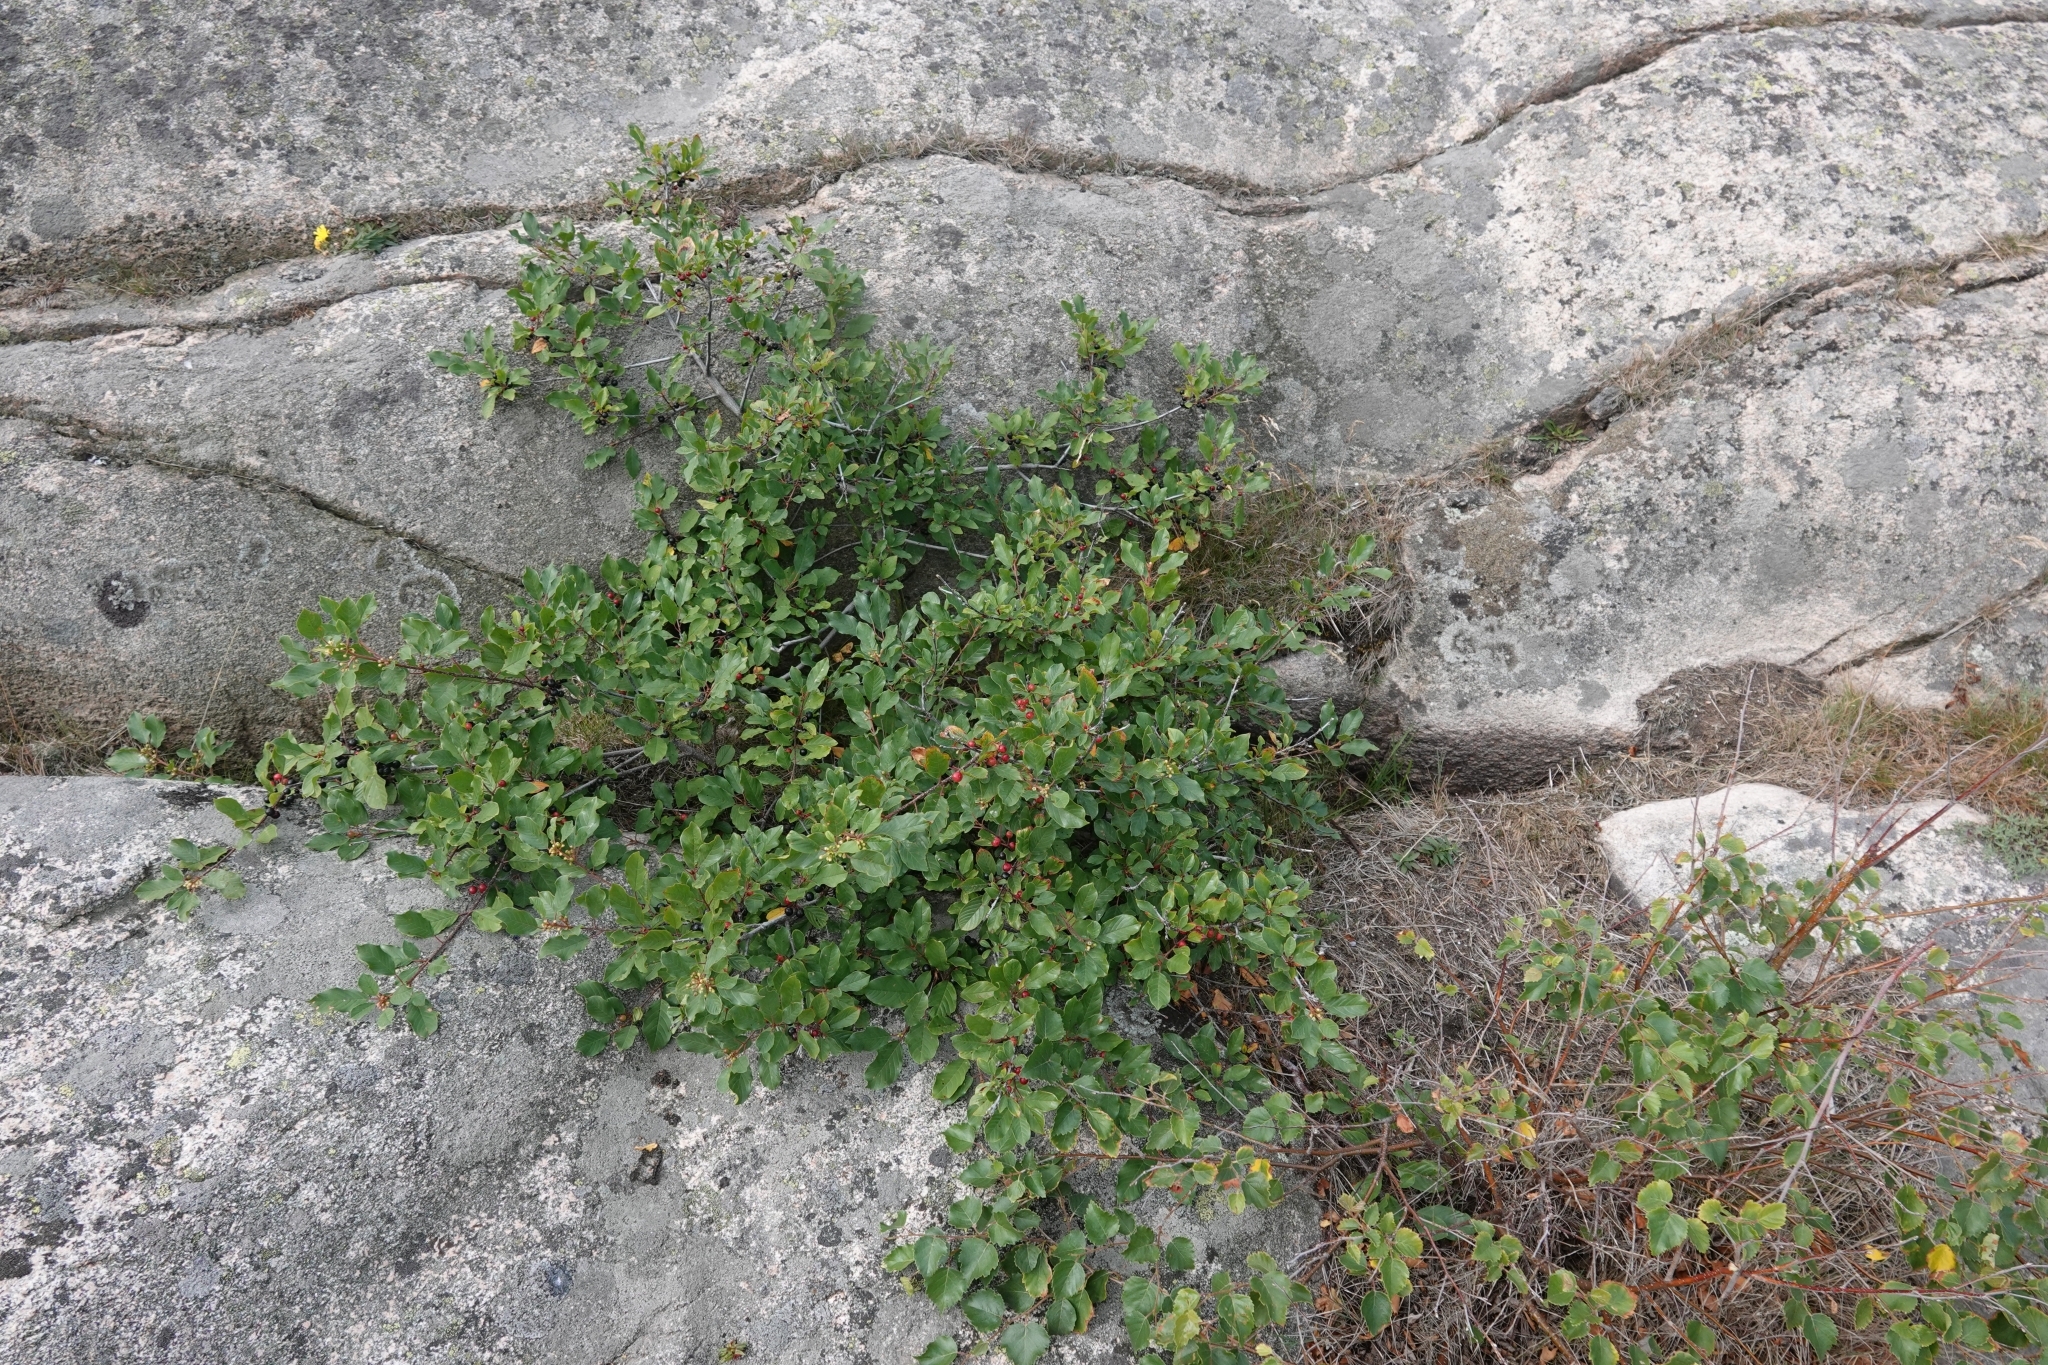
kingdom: Plantae
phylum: Tracheophyta
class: Magnoliopsida
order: Rosales
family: Rhamnaceae
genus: Frangula
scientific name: Frangula alnus
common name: Alder buckthorn
